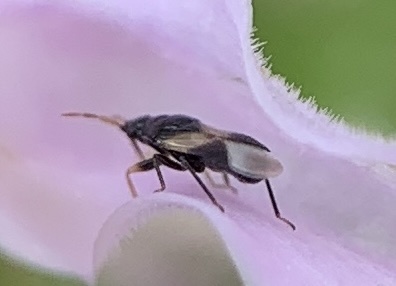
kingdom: Animalia
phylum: Arthropoda
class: Insecta
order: Hemiptera
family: Anthocoridae
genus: Orius
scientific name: Orius insidiosus
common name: Insidious flower bug
